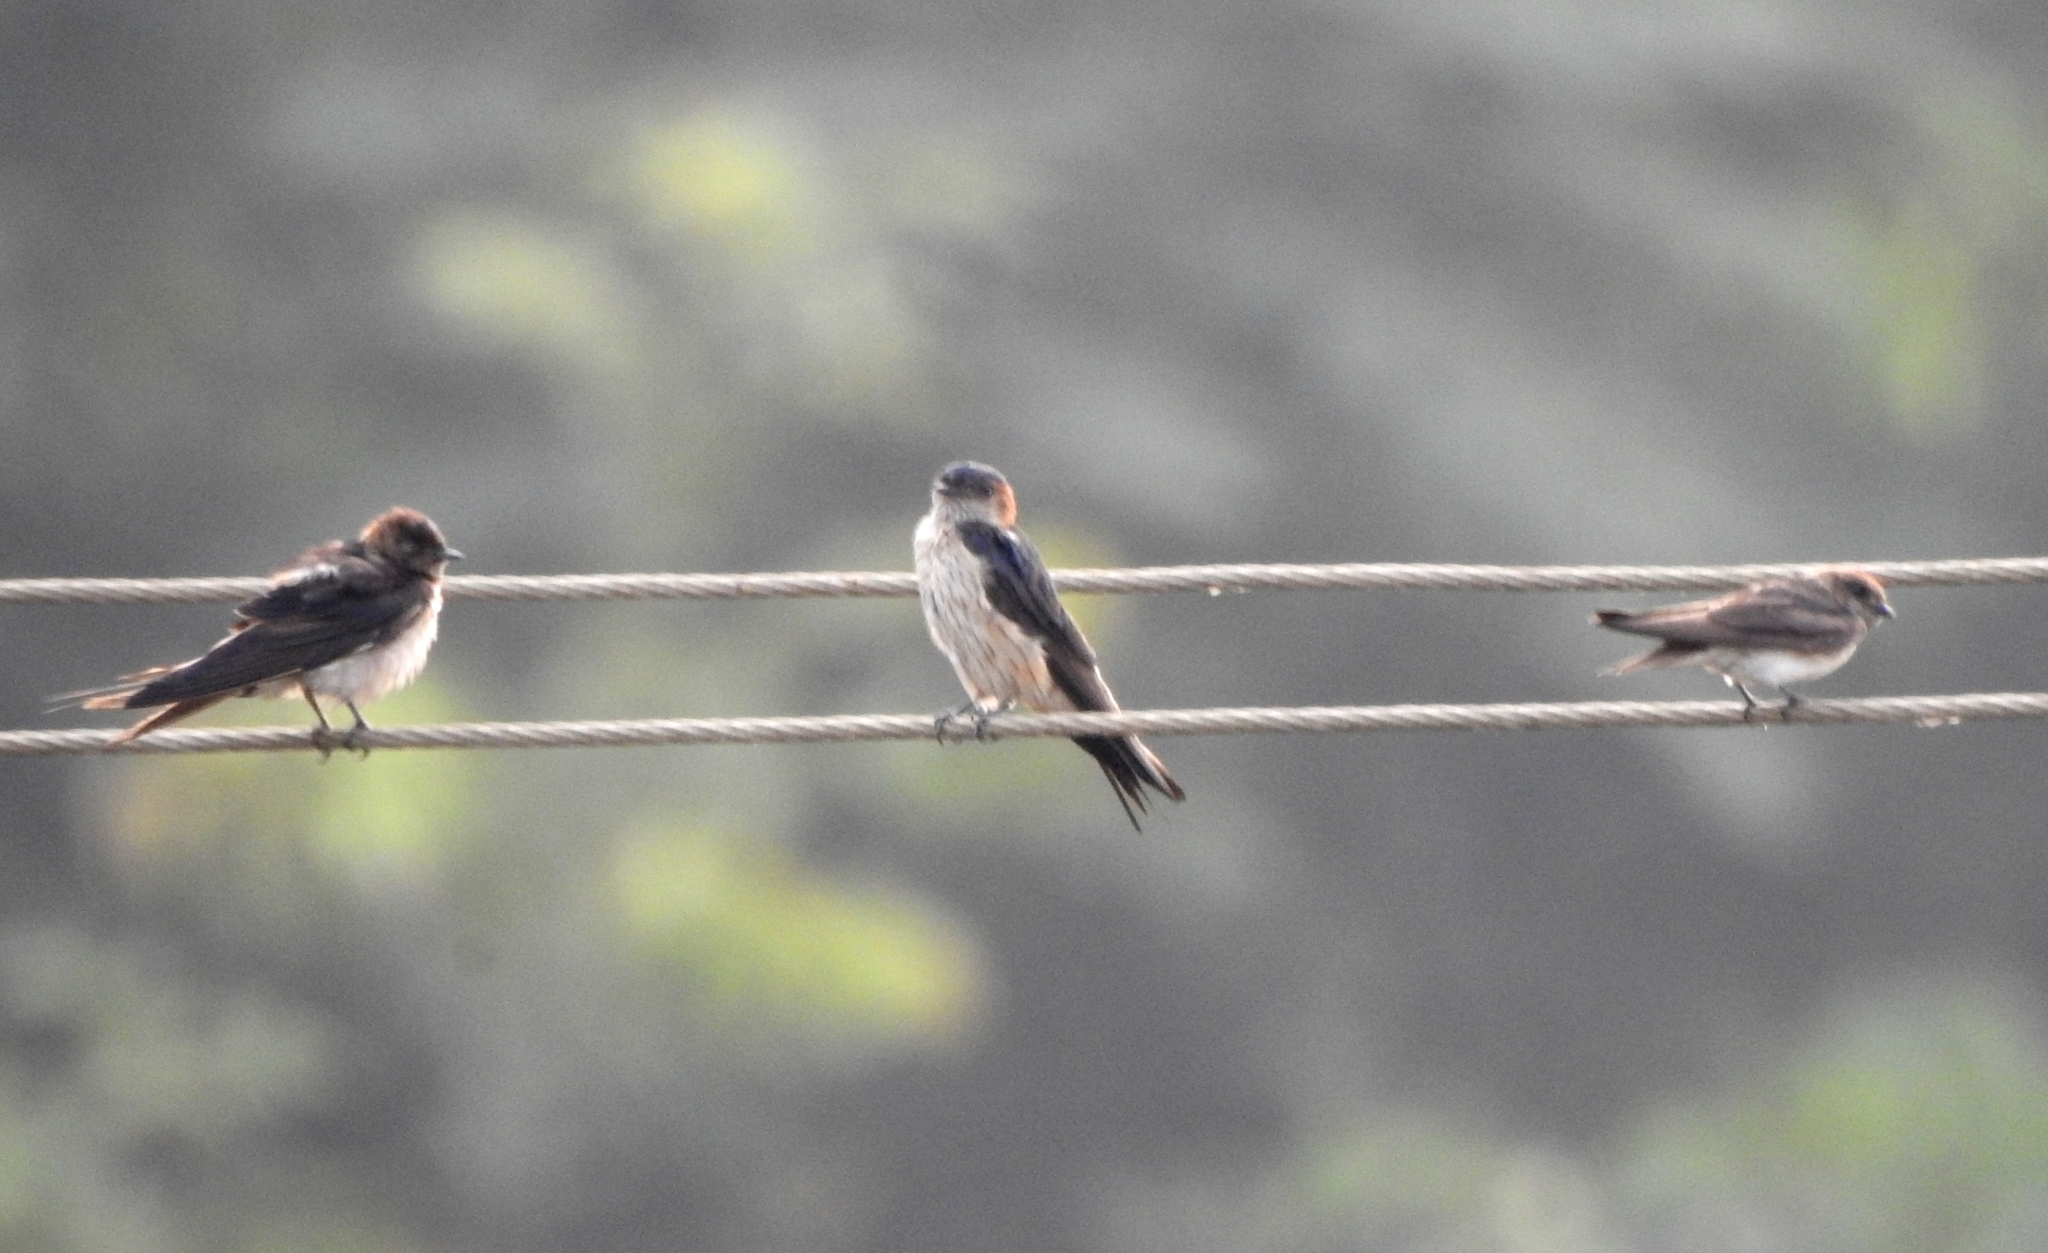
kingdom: Animalia
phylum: Chordata
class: Aves
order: Passeriformes
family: Hirundinidae
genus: Cecropis
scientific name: Cecropis daurica
